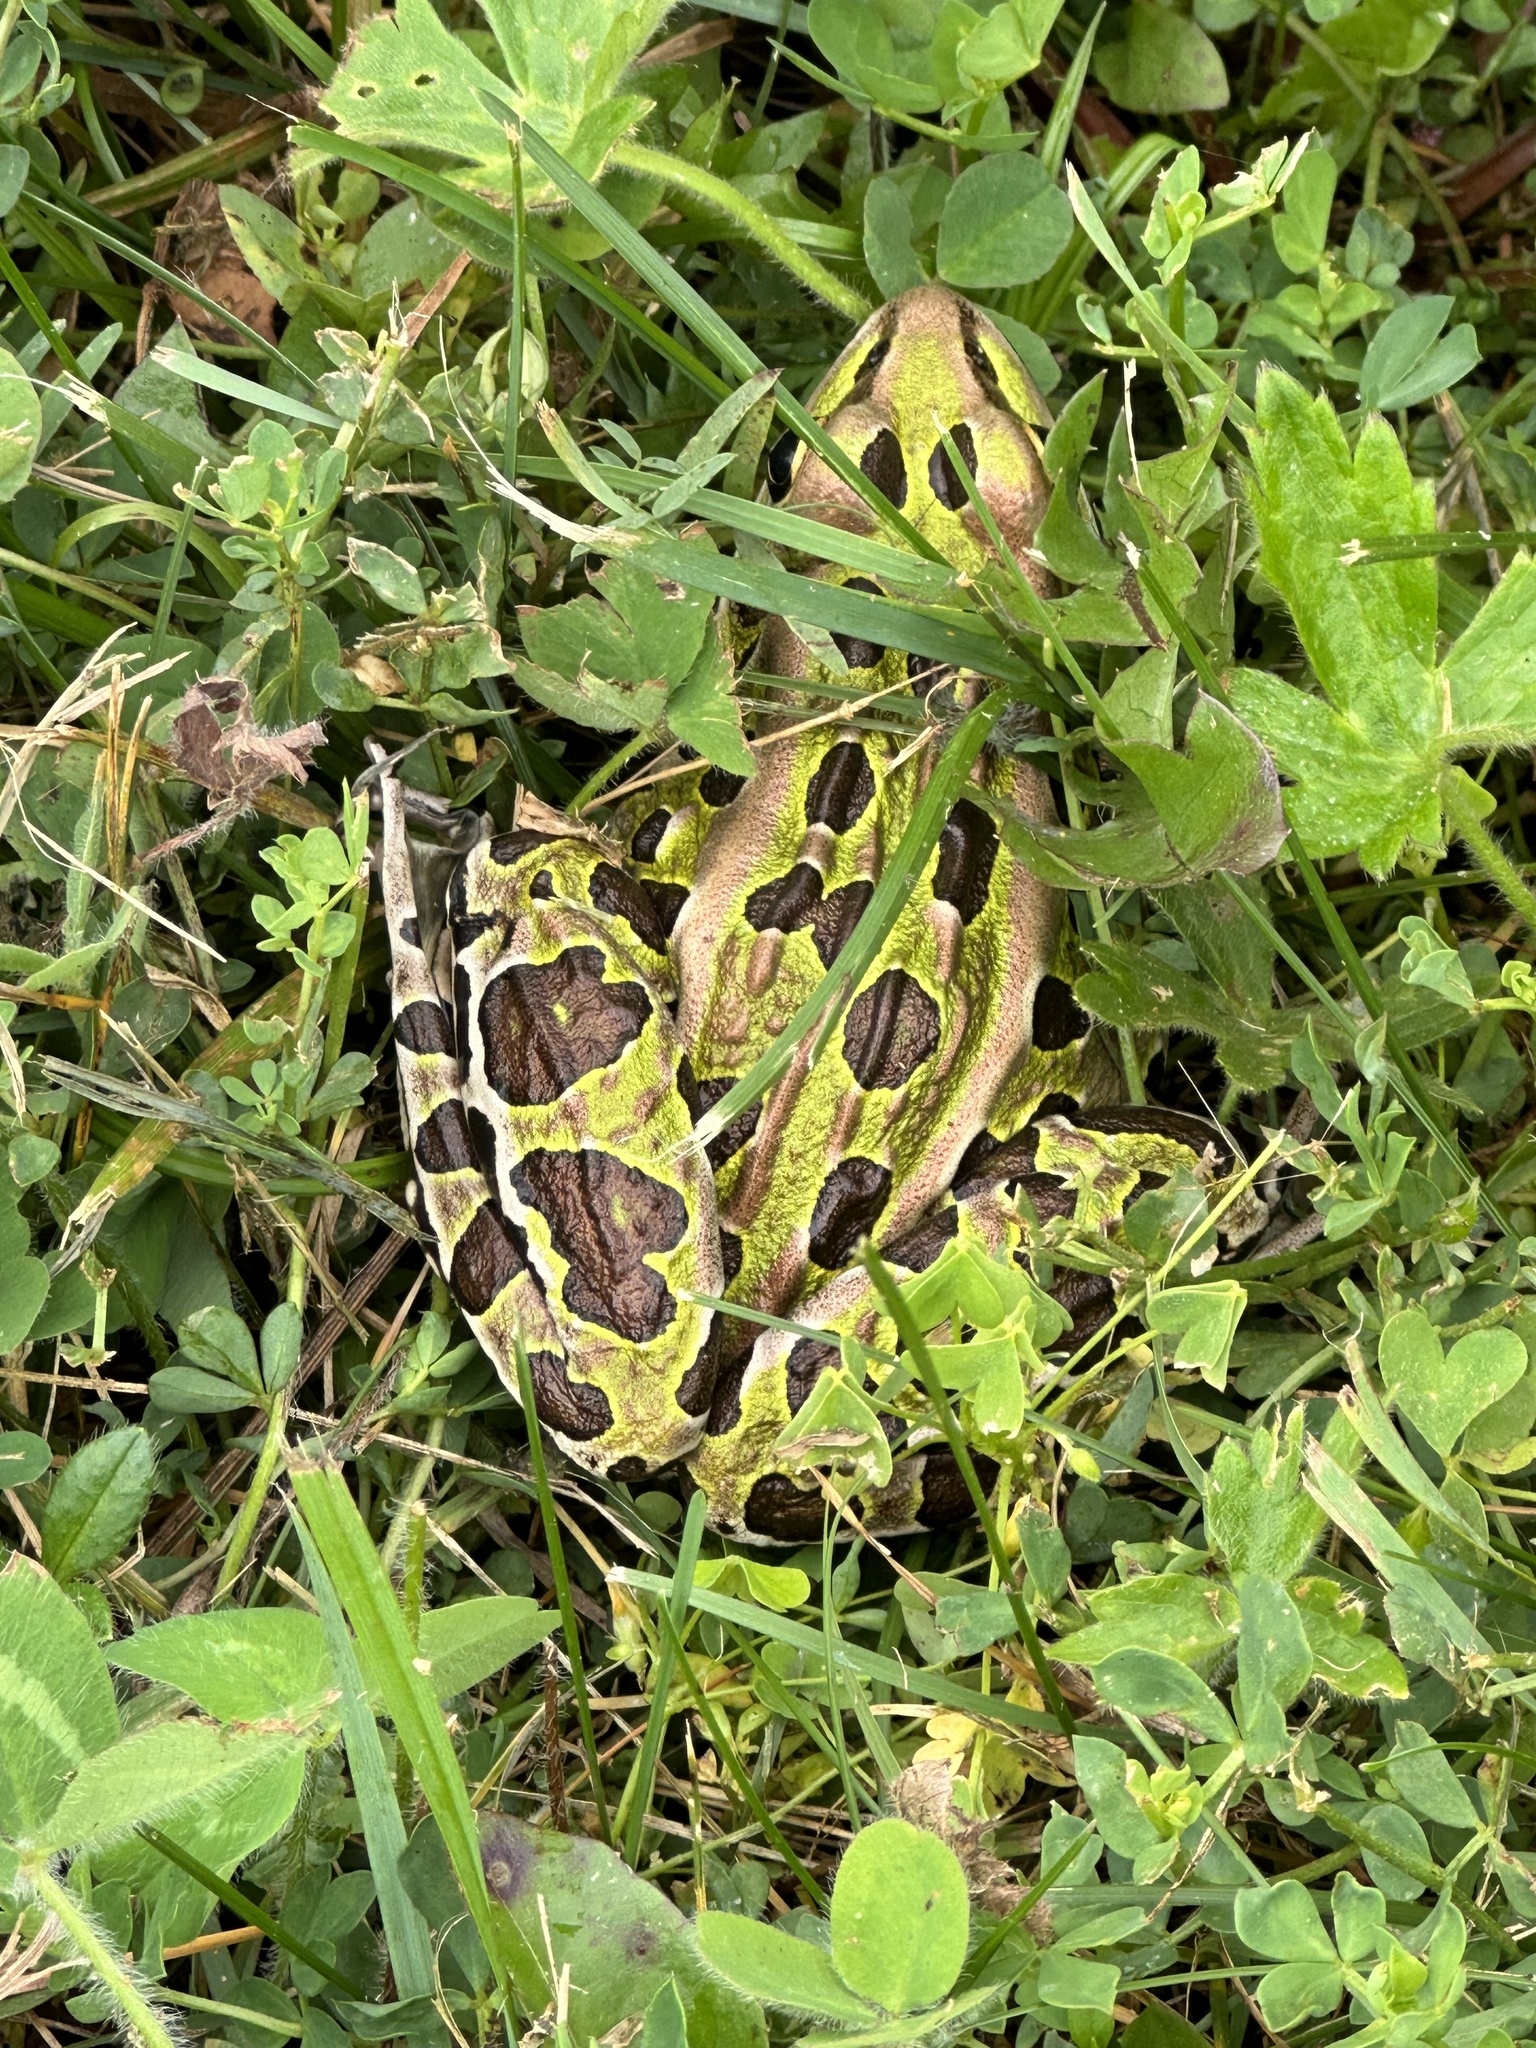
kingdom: Animalia
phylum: Chordata
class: Amphibia
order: Anura
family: Ranidae
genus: Lithobates
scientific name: Lithobates pipiens
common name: Northern leopard frog
